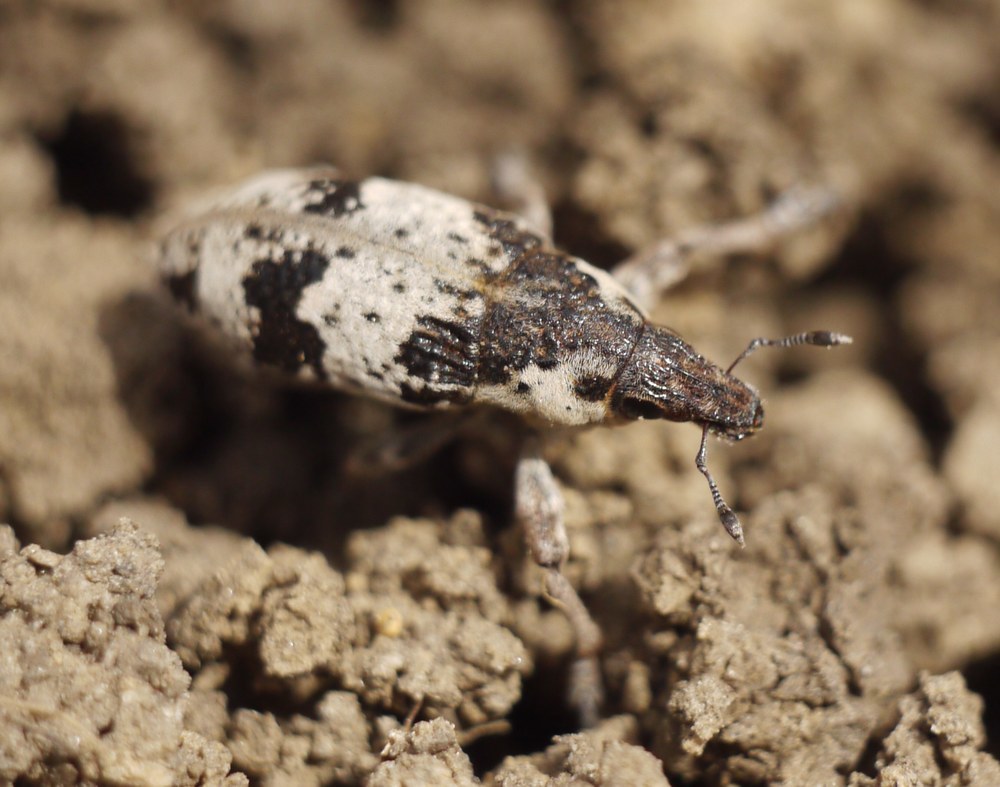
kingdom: Animalia
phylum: Arthropoda
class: Insecta
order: Coleoptera
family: Curculionidae
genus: Bothynoderes
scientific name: Bothynoderes affinis
